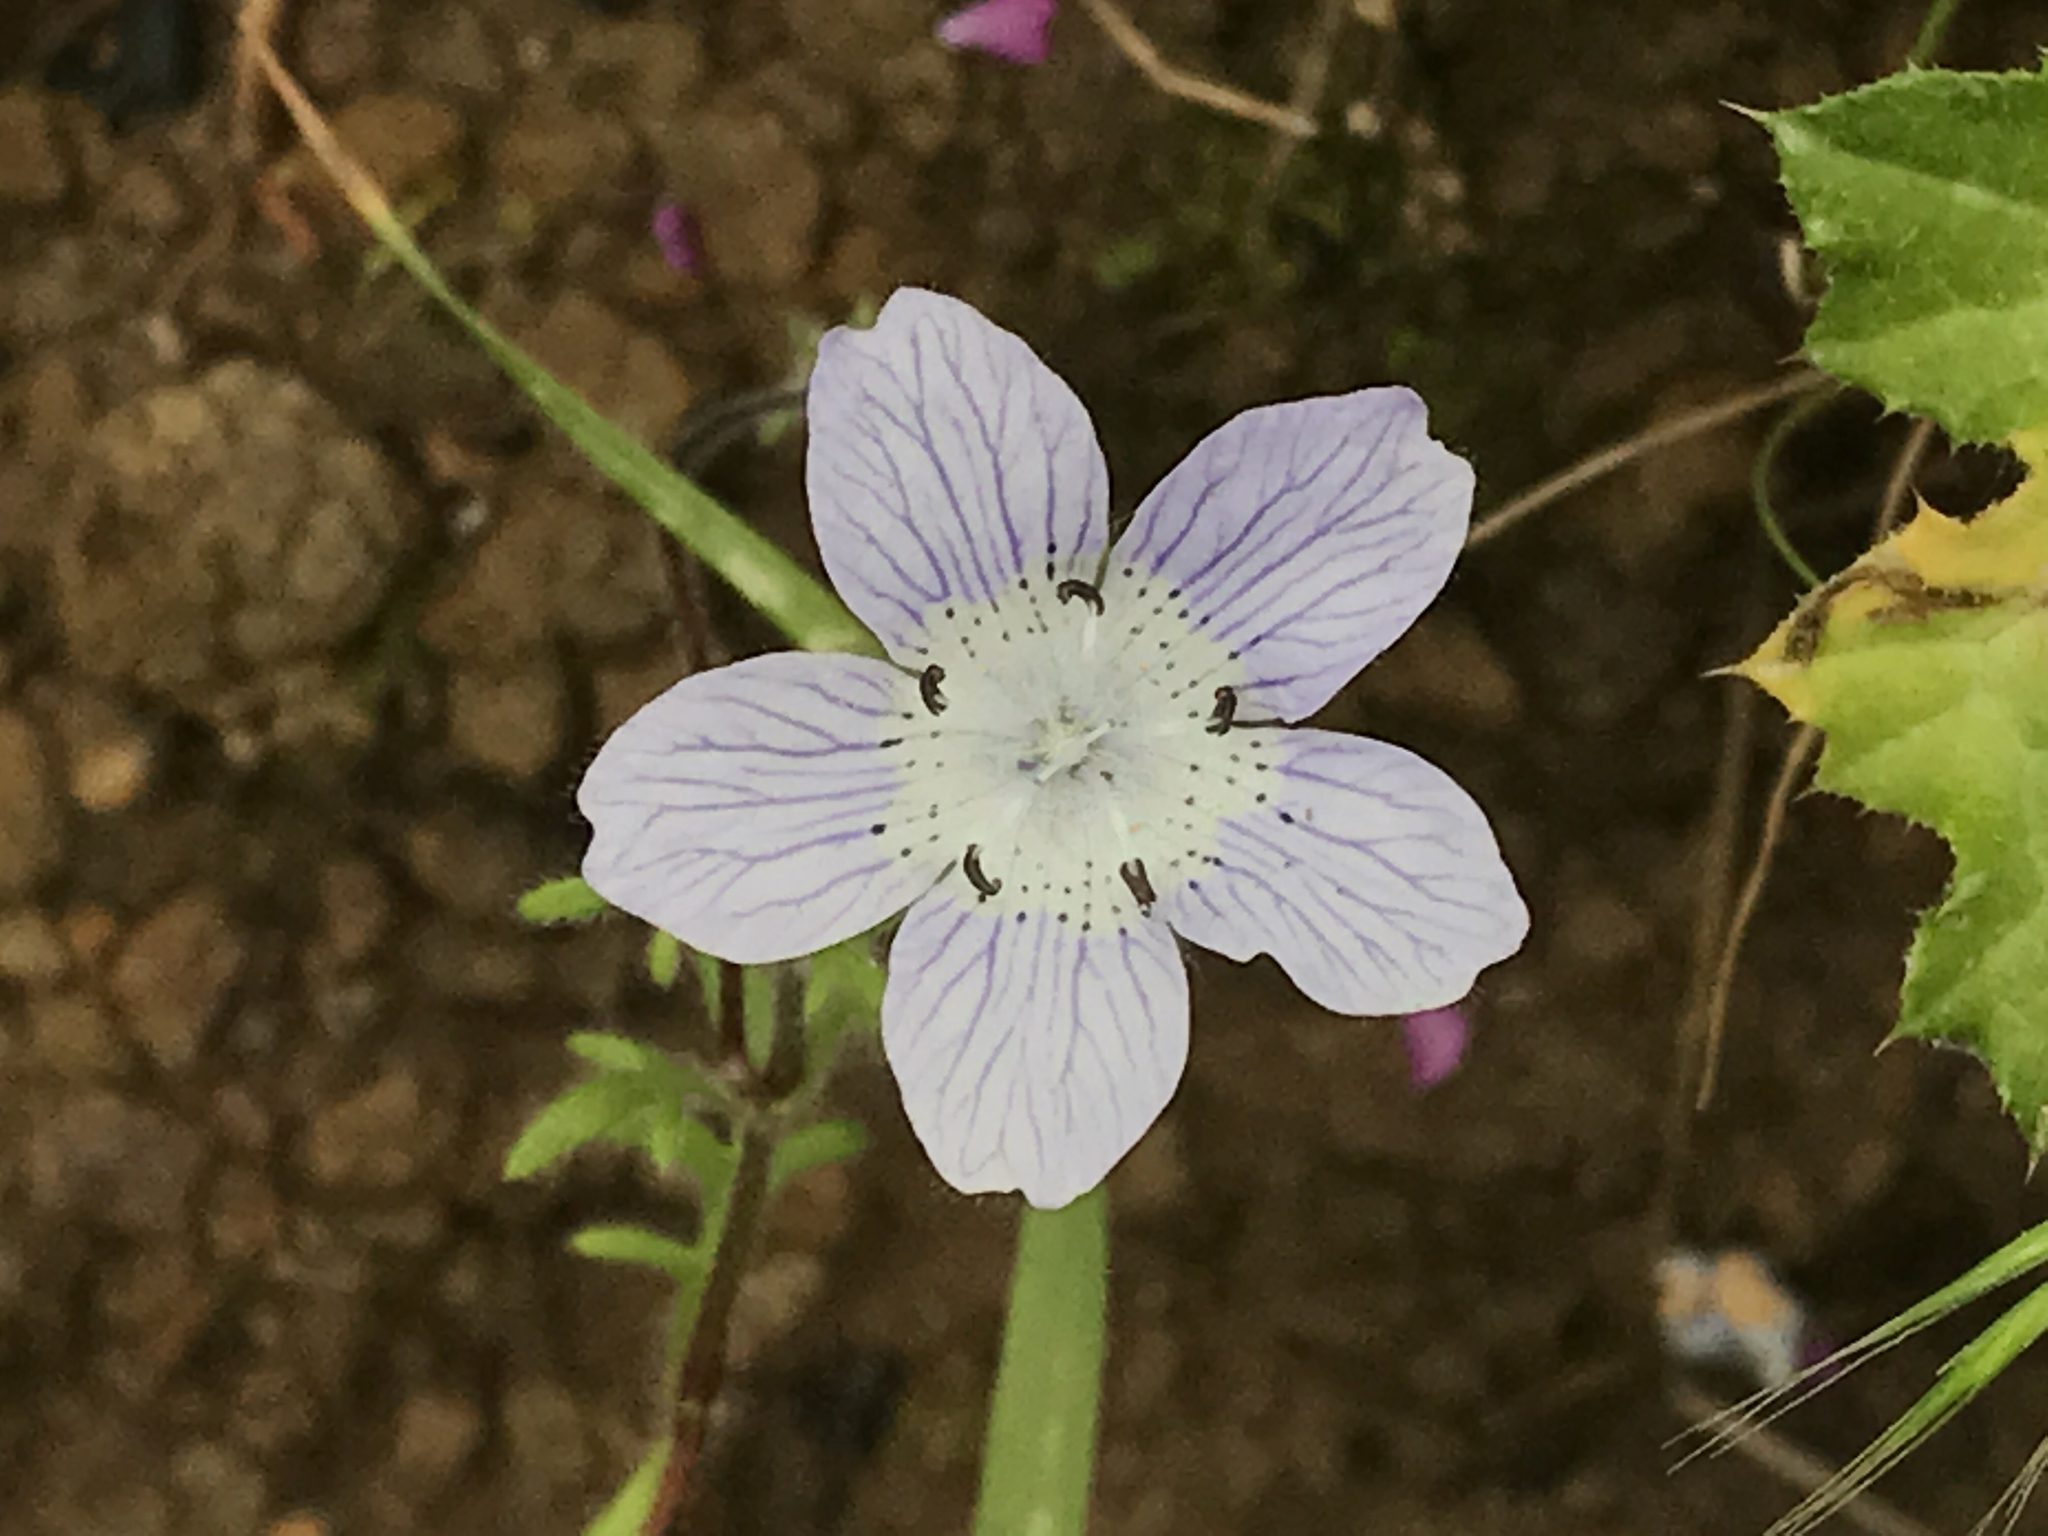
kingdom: Plantae
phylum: Tracheophyta
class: Magnoliopsida
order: Boraginales
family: Hydrophyllaceae
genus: Nemophila
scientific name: Nemophila menziesii
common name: Baby's-blue-eyes
